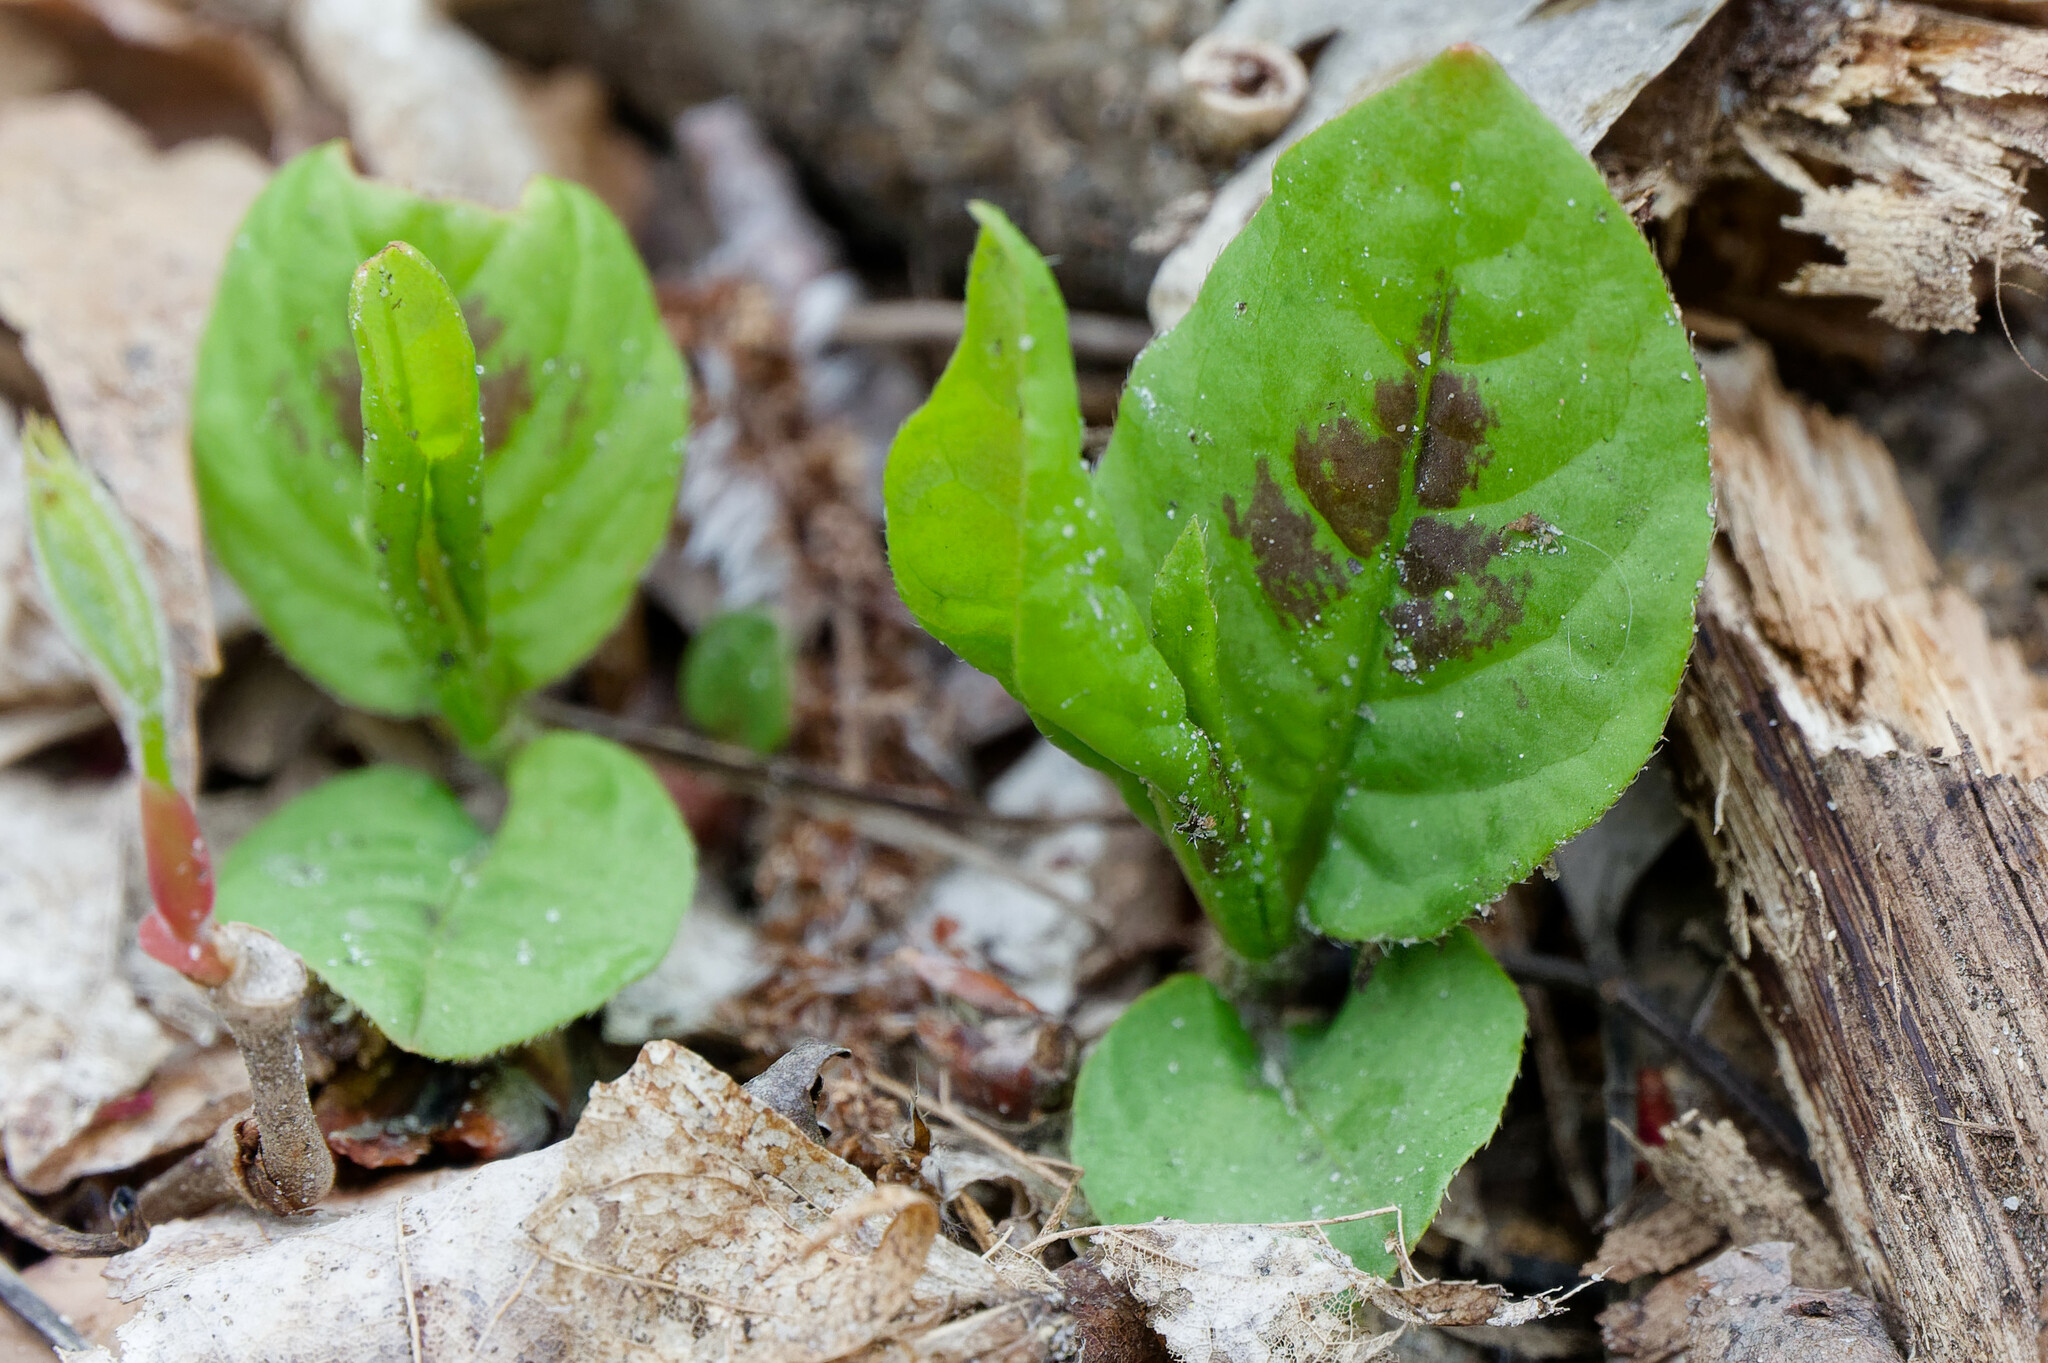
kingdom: Plantae
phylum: Tracheophyta
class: Magnoliopsida
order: Caryophyllales
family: Polygonaceae
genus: Persicaria
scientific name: Persicaria virginiana
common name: Jumpseed
